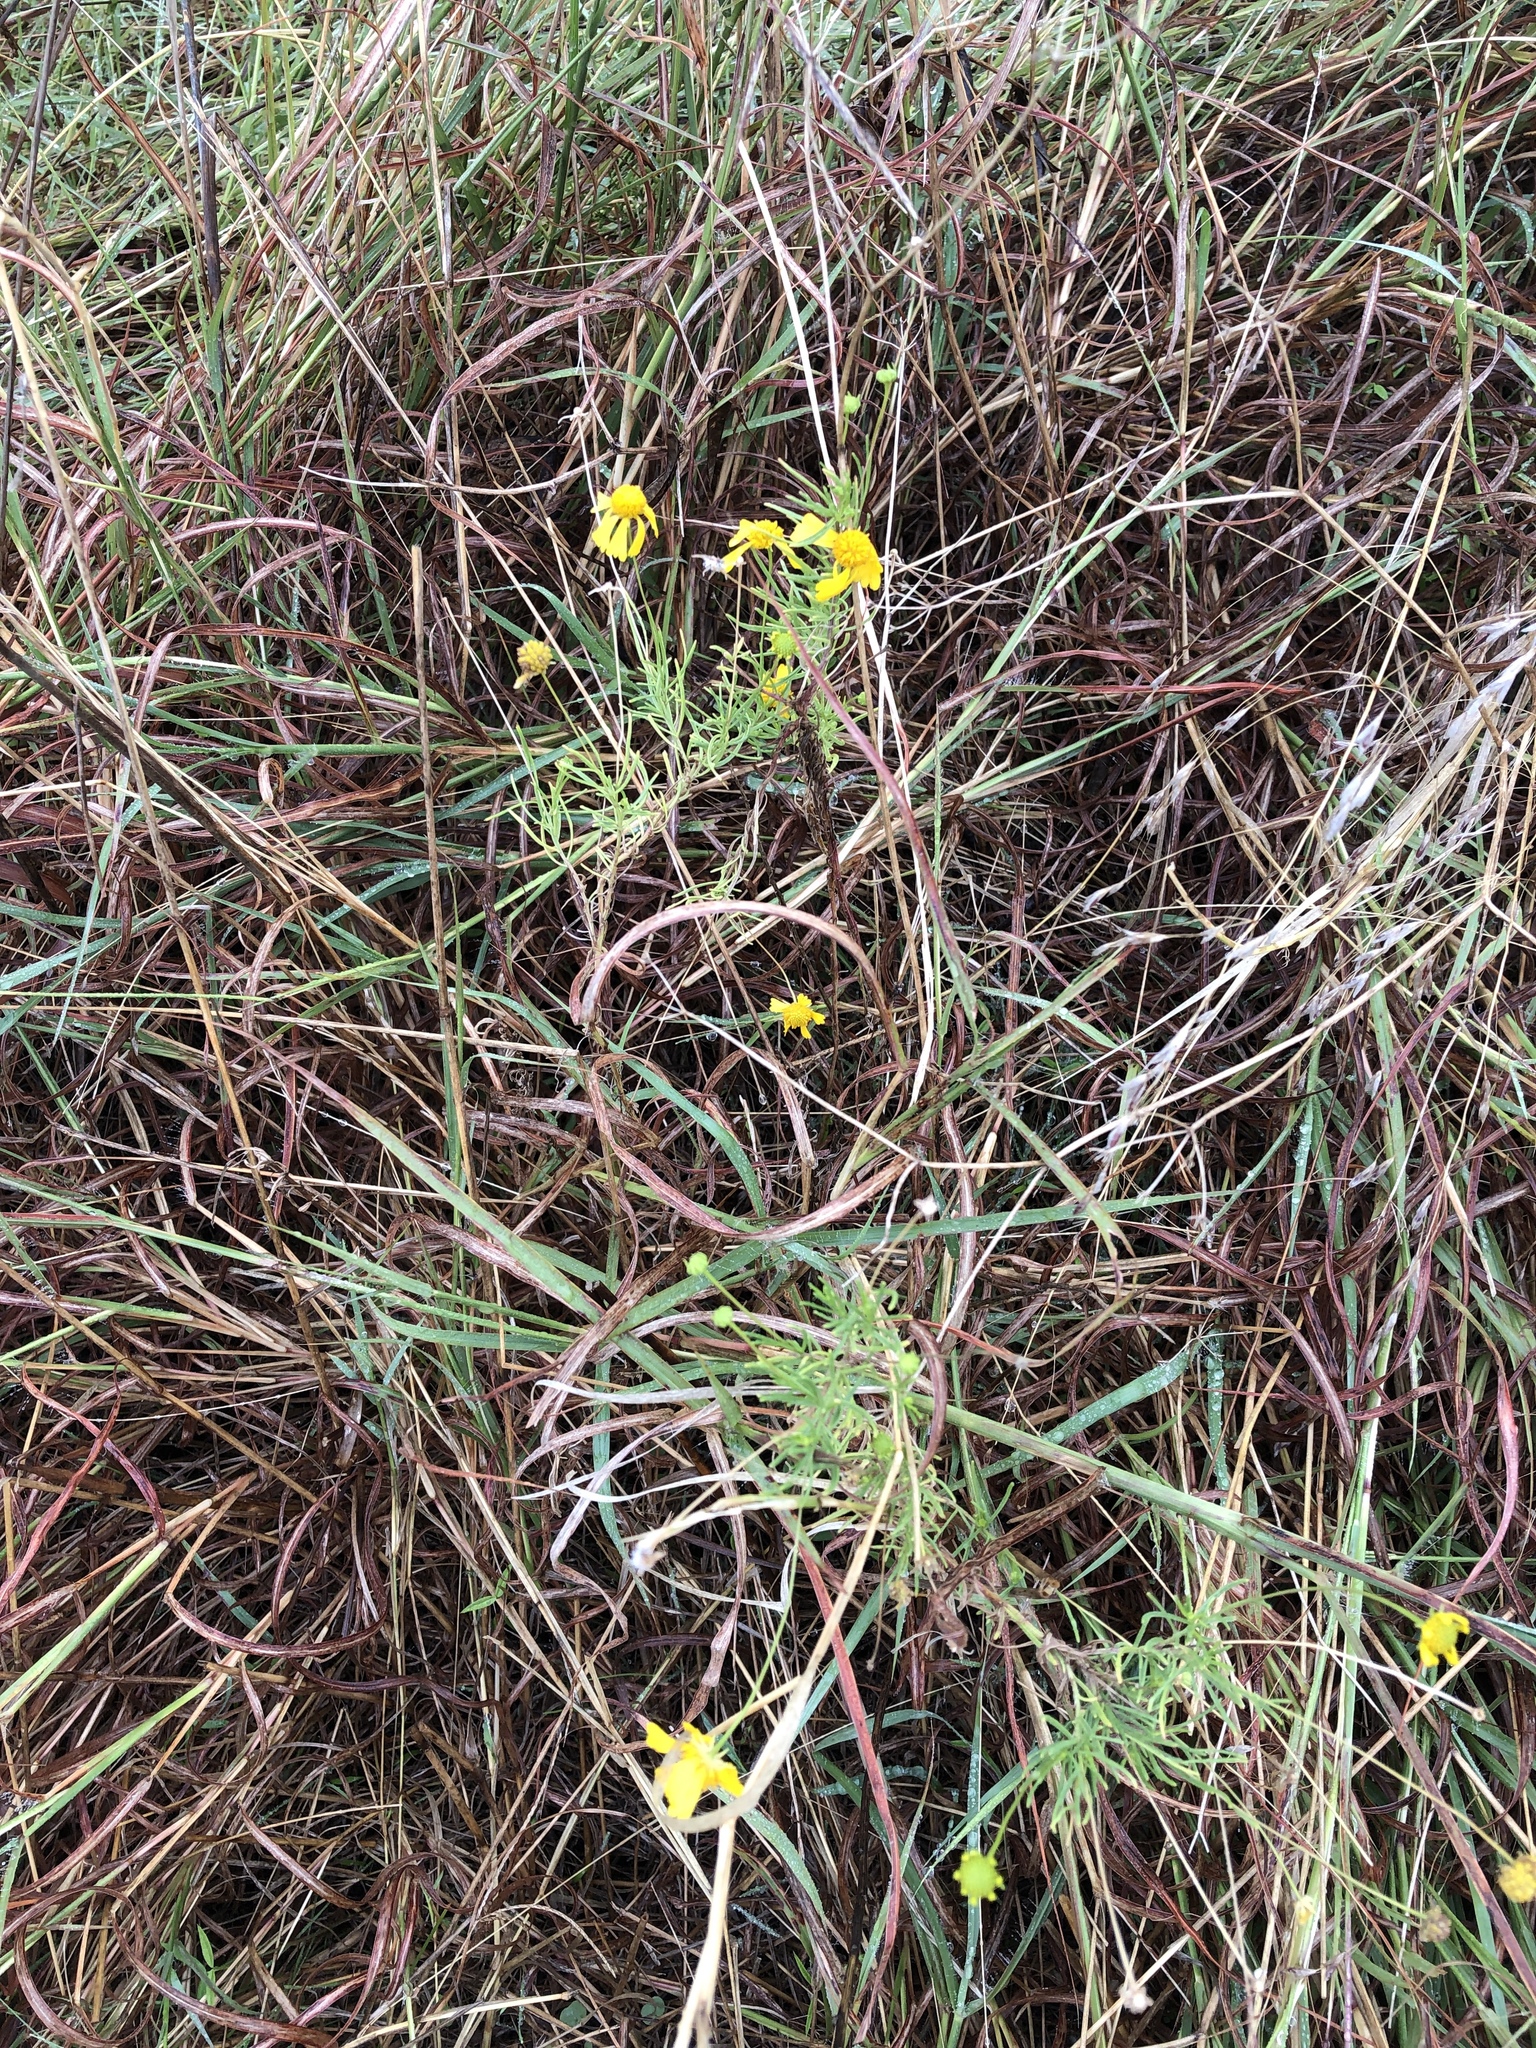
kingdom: Plantae
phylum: Tracheophyta
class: Magnoliopsida
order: Asterales
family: Asteraceae
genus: Helenium
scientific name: Helenium amarum
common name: Bitter sneezeweed
